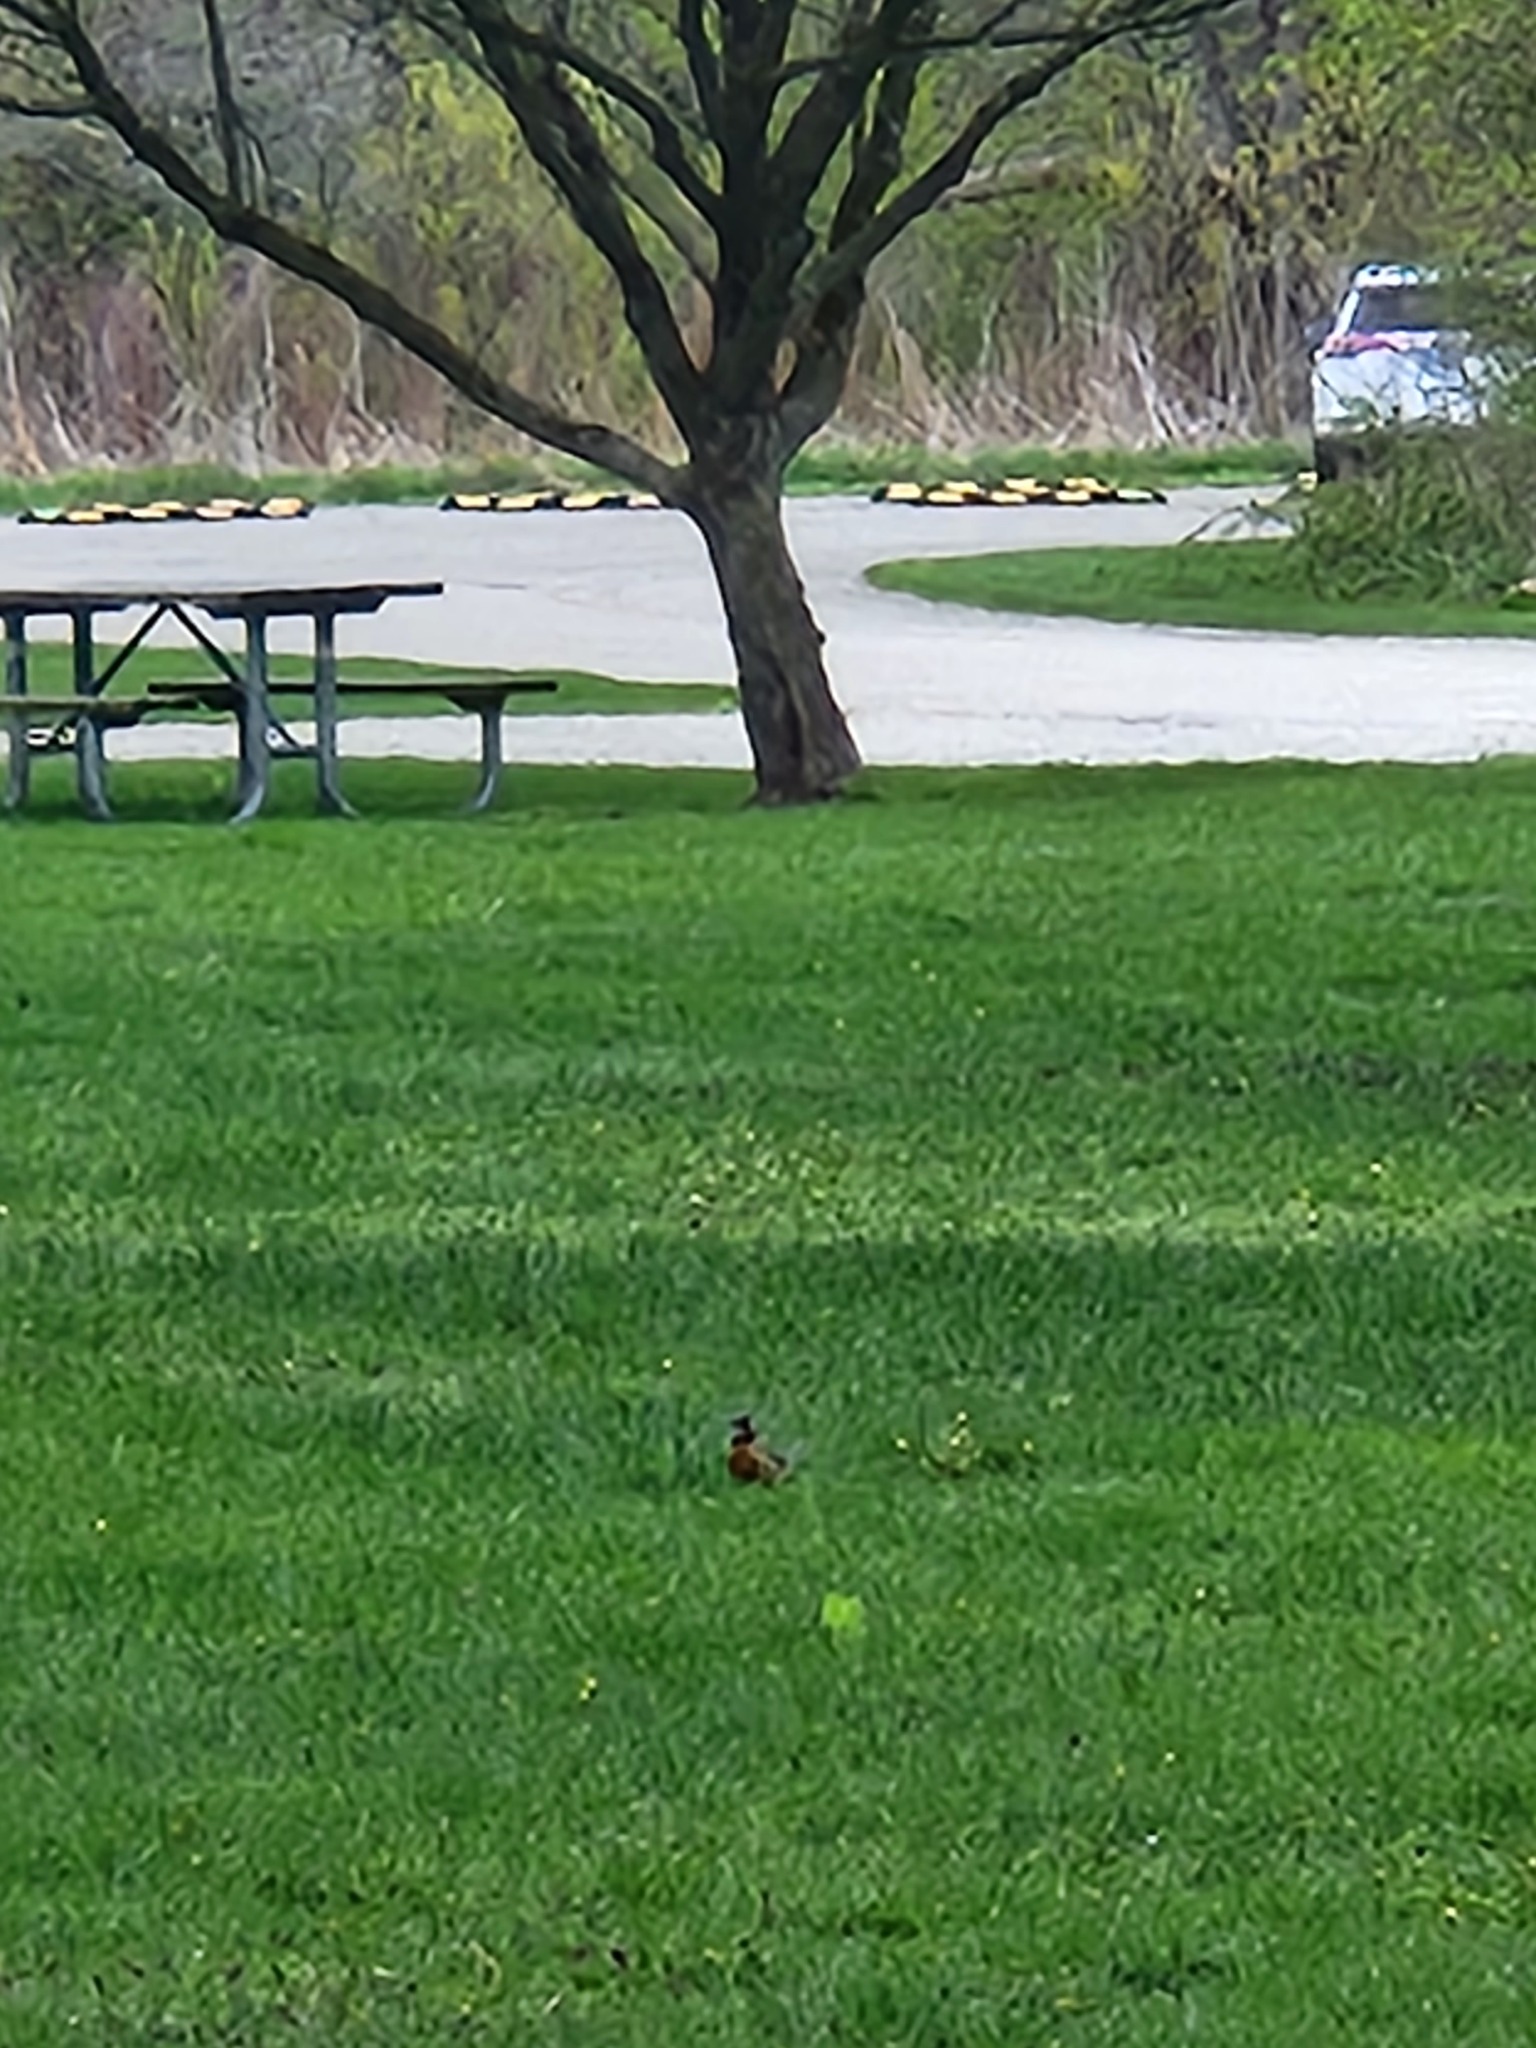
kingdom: Animalia
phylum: Chordata
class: Aves
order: Passeriformes
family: Turdidae
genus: Turdus
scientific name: Turdus migratorius
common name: American robin
